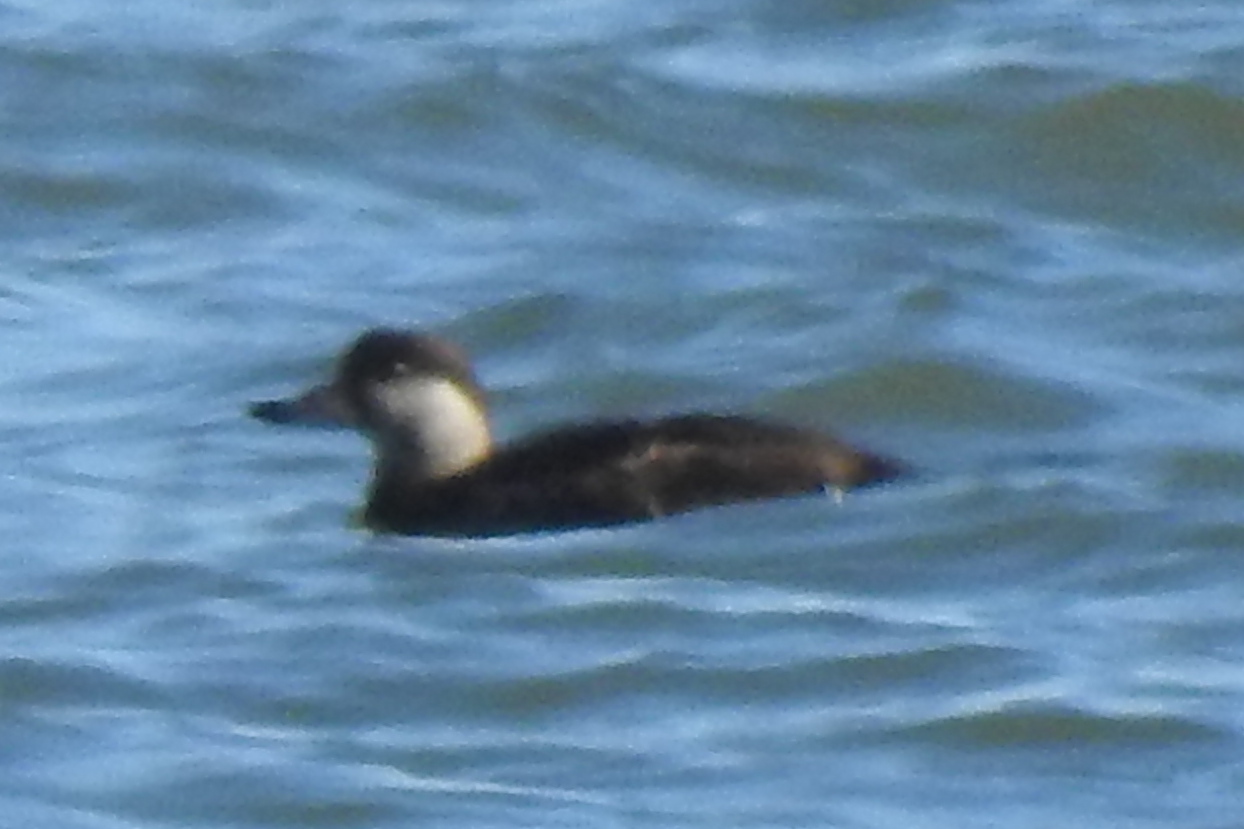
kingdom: Animalia
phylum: Chordata
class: Aves
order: Anseriformes
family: Anatidae
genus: Melanitta
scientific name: Melanitta americana
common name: Black scoter
